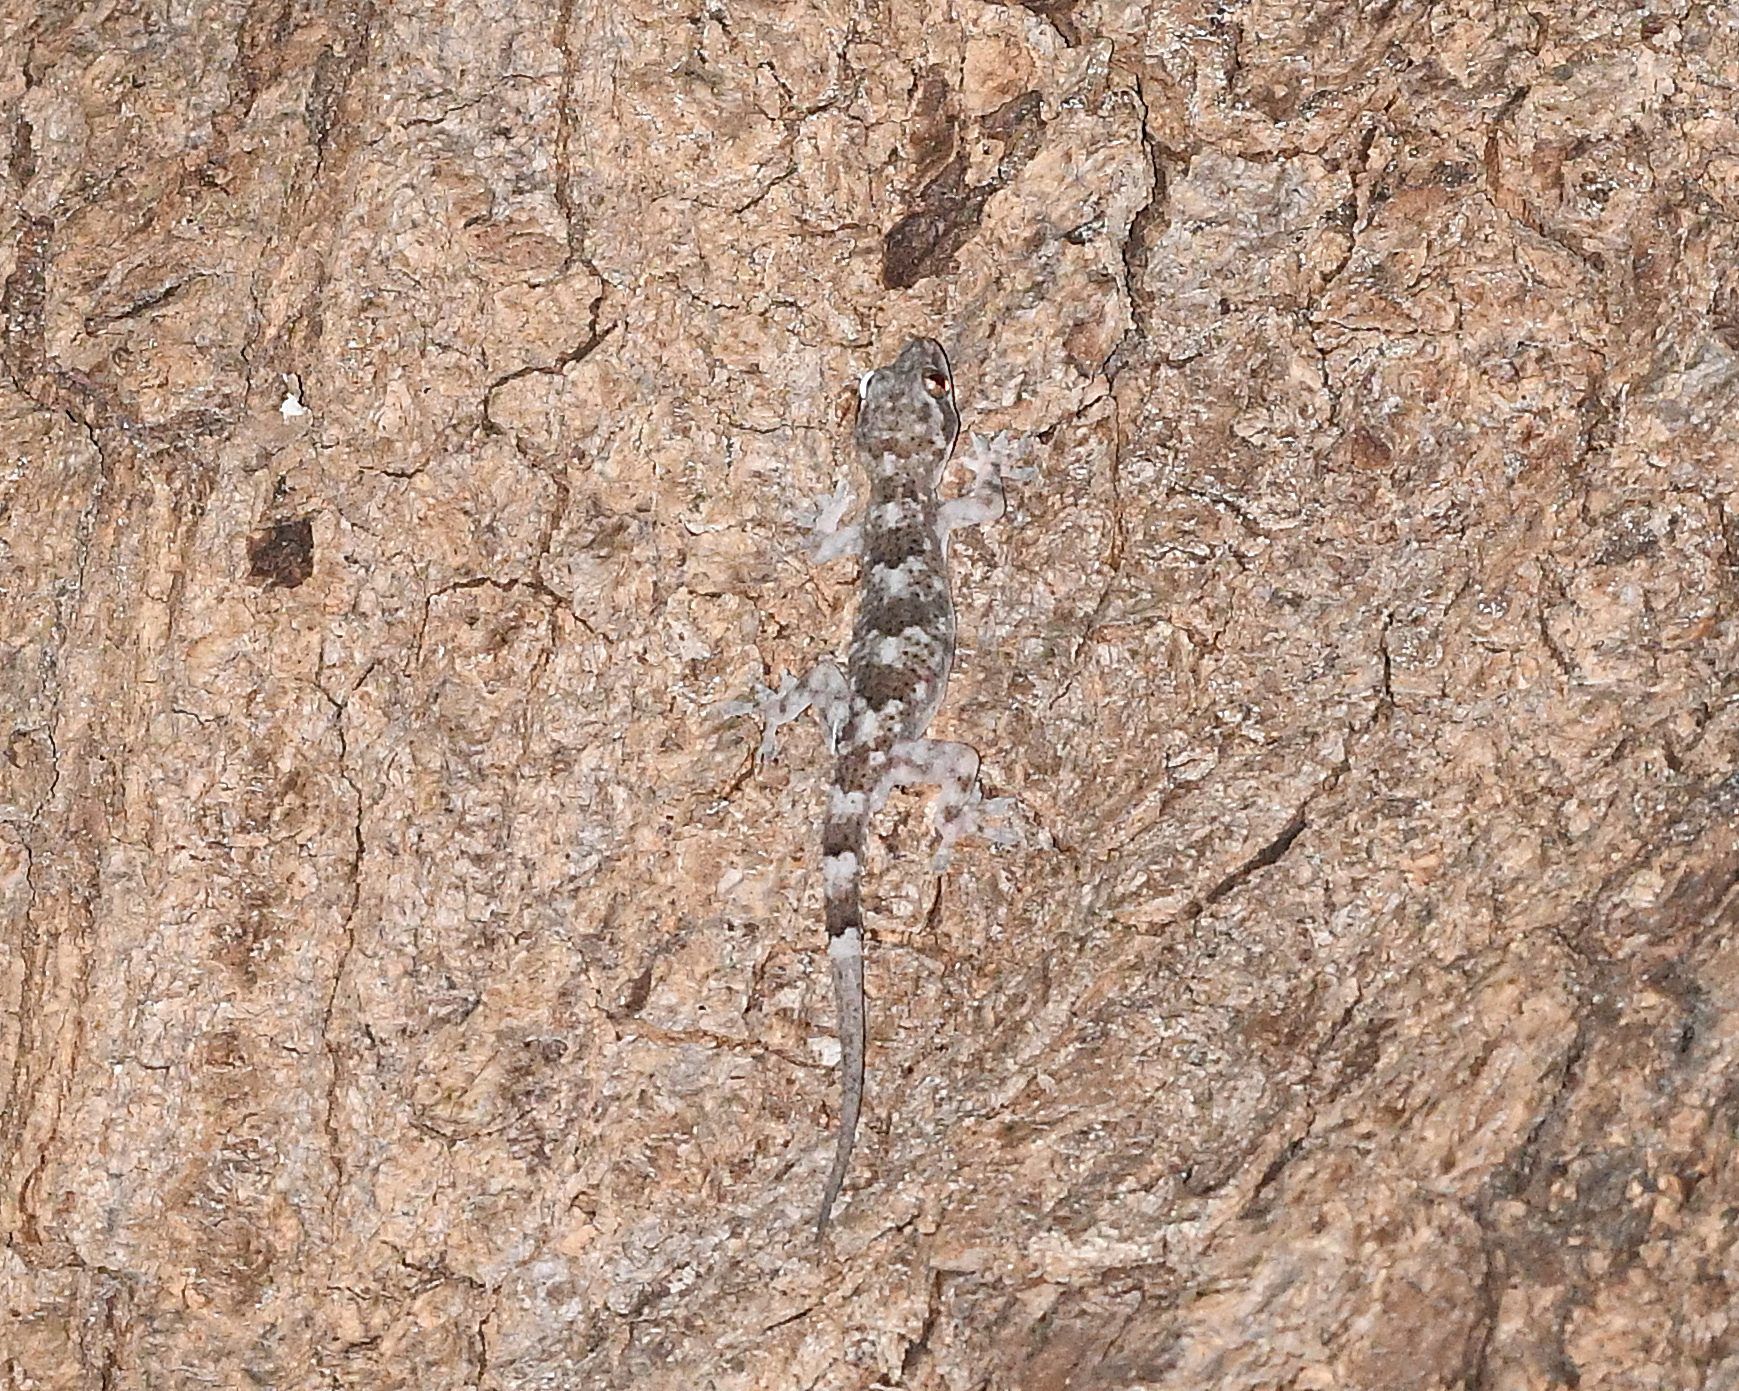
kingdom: Animalia
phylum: Chordata
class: Squamata
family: Gekkonidae
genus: Hemidactylus
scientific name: Hemidactylus mabouia
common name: House gecko
